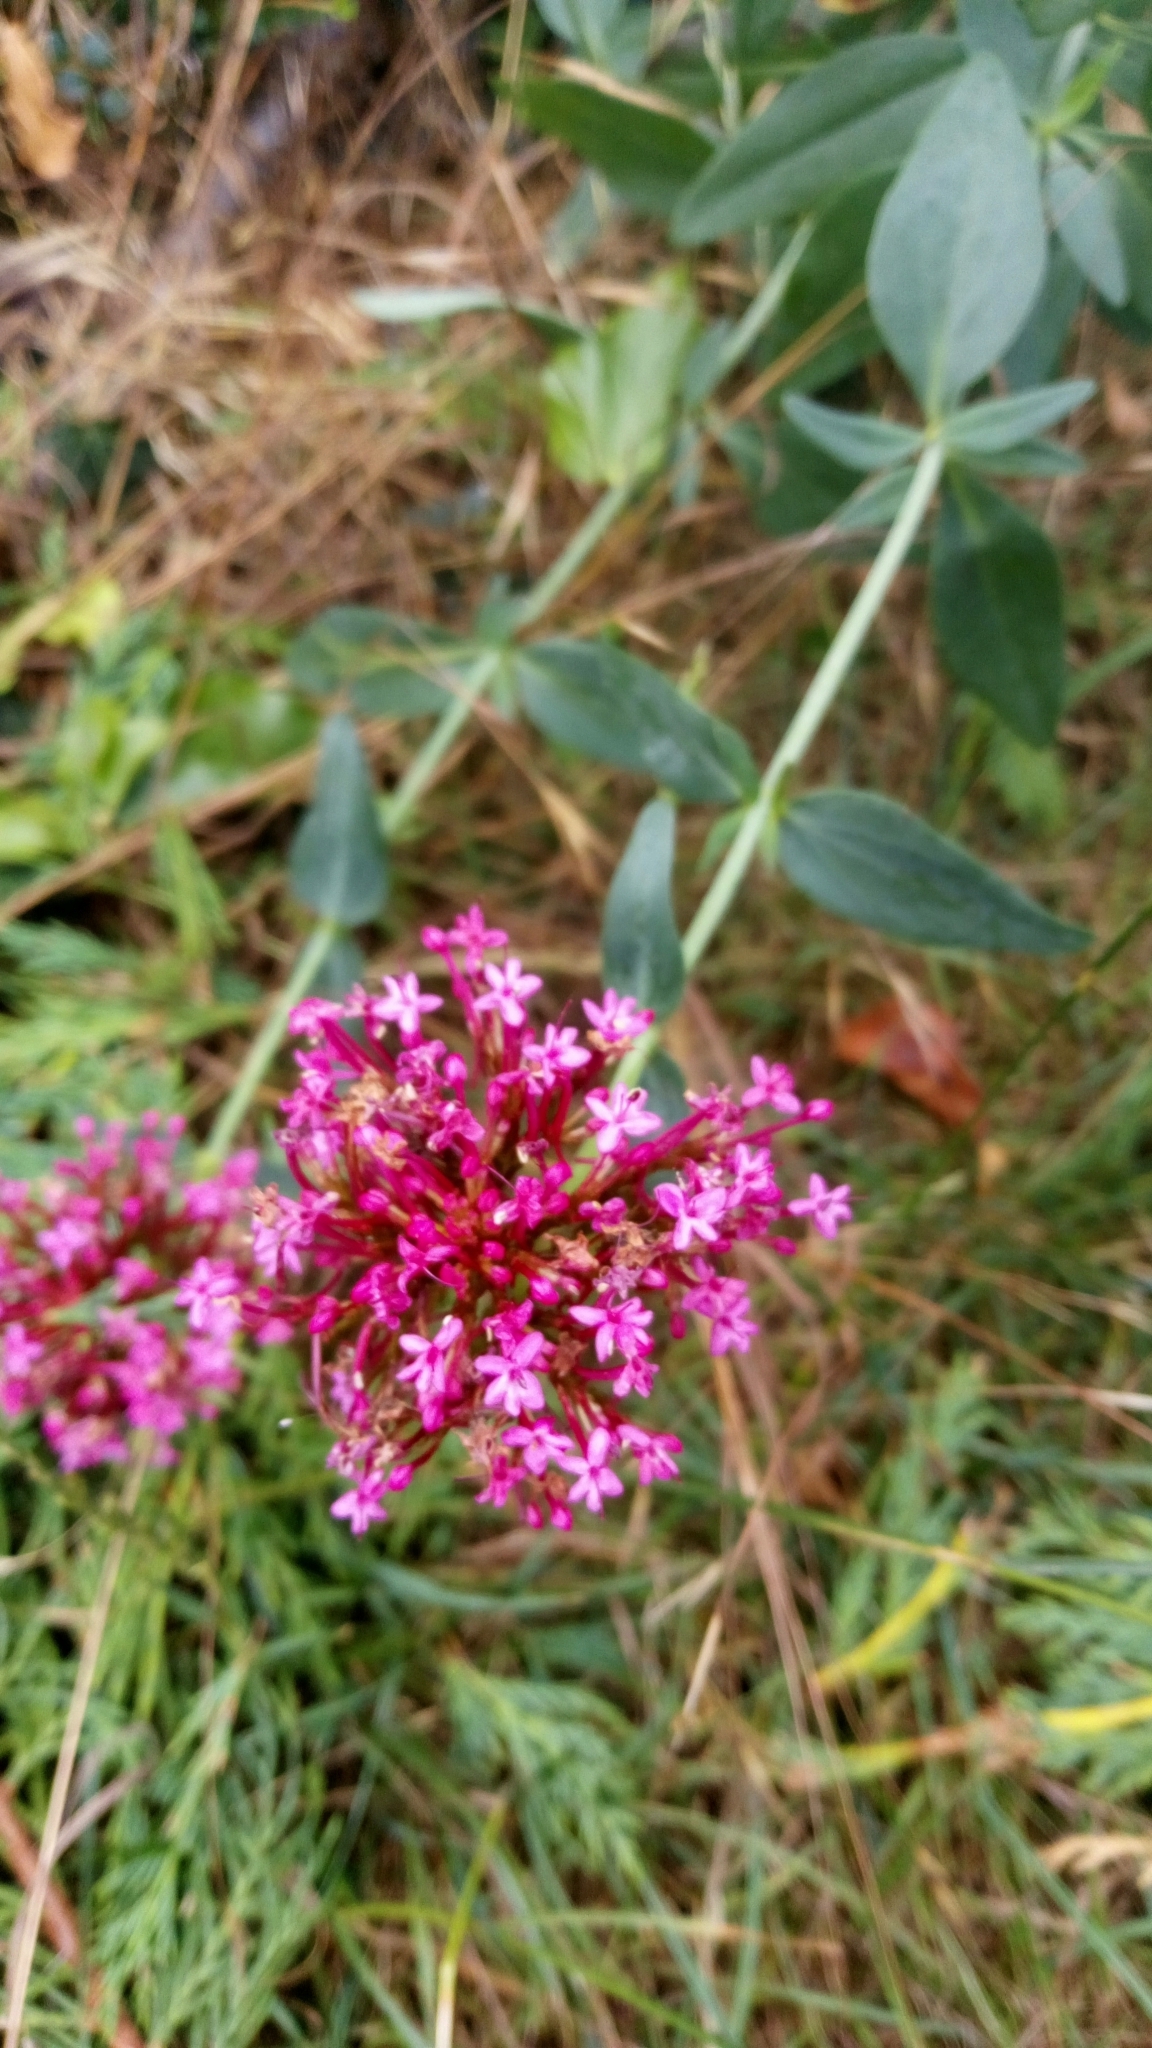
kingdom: Plantae
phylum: Tracheophyta
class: Magnoliopsida
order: Dipsacales
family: Caprifoliaceae
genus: Centranthus
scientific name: Centranthus ruber
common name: Red valerian
